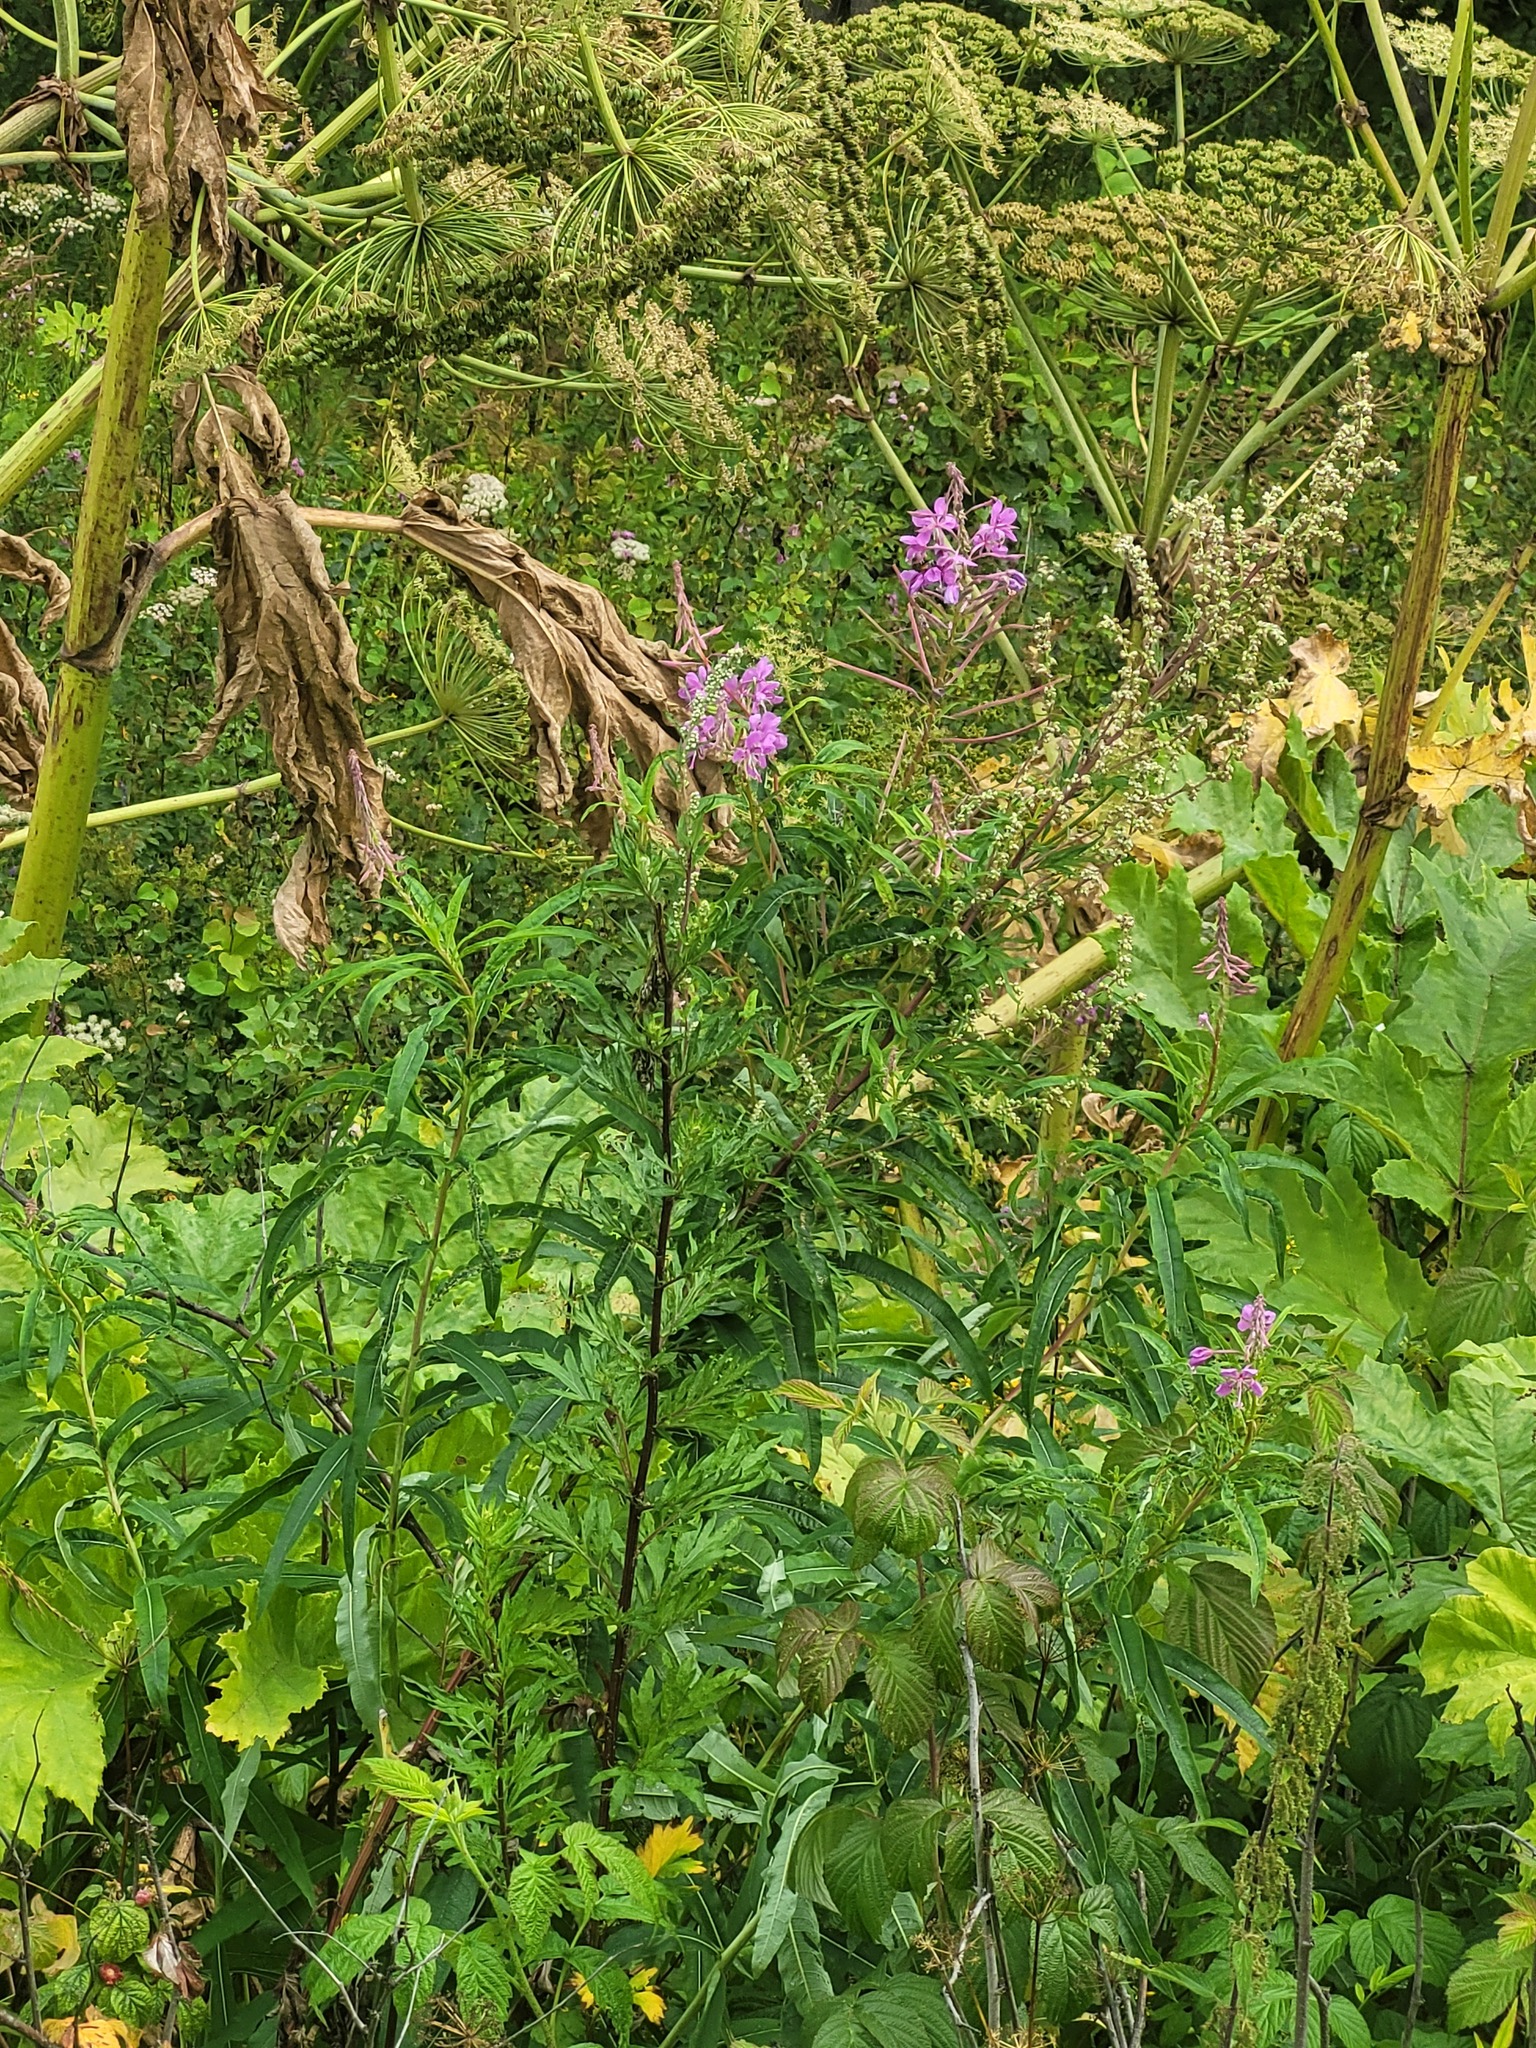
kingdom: Plantae
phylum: Tracheophyta
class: Magnoliopsida
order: Myrtales
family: Onagraceae
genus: Chamaenerion
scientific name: Chamaenerion angustifolium
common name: Fireweed
